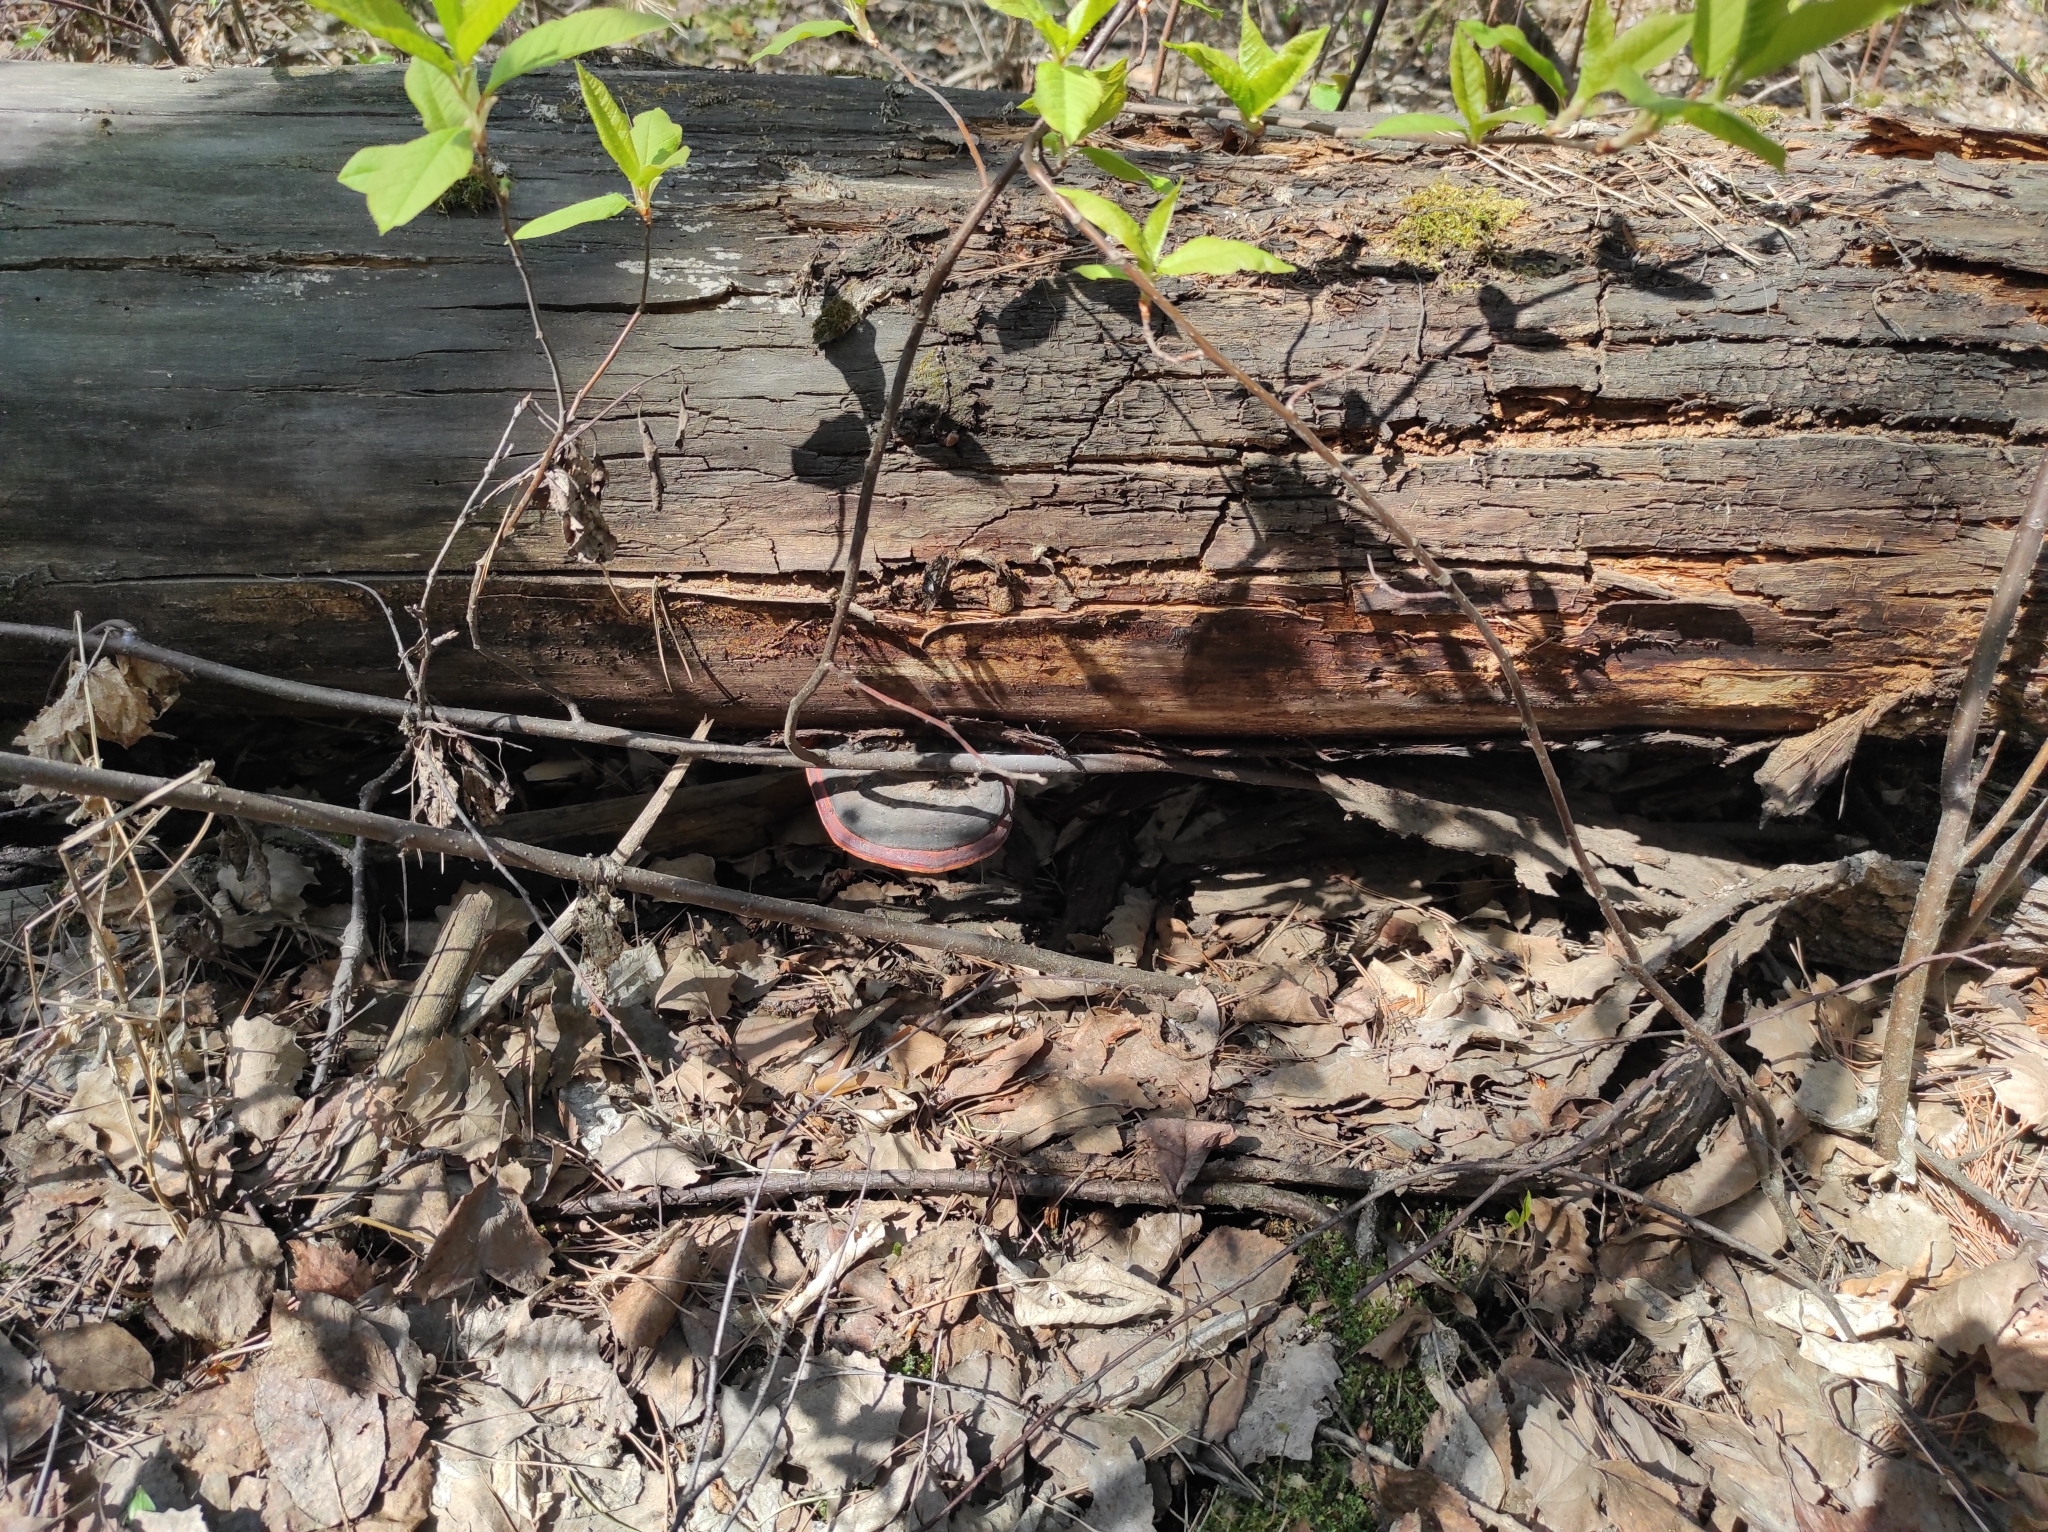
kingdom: Plantae
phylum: Tracheophyta
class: Magnoliopsida
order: Rosales
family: Rosaceae
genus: Prunus
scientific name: Prunus padus
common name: Bird cherry
